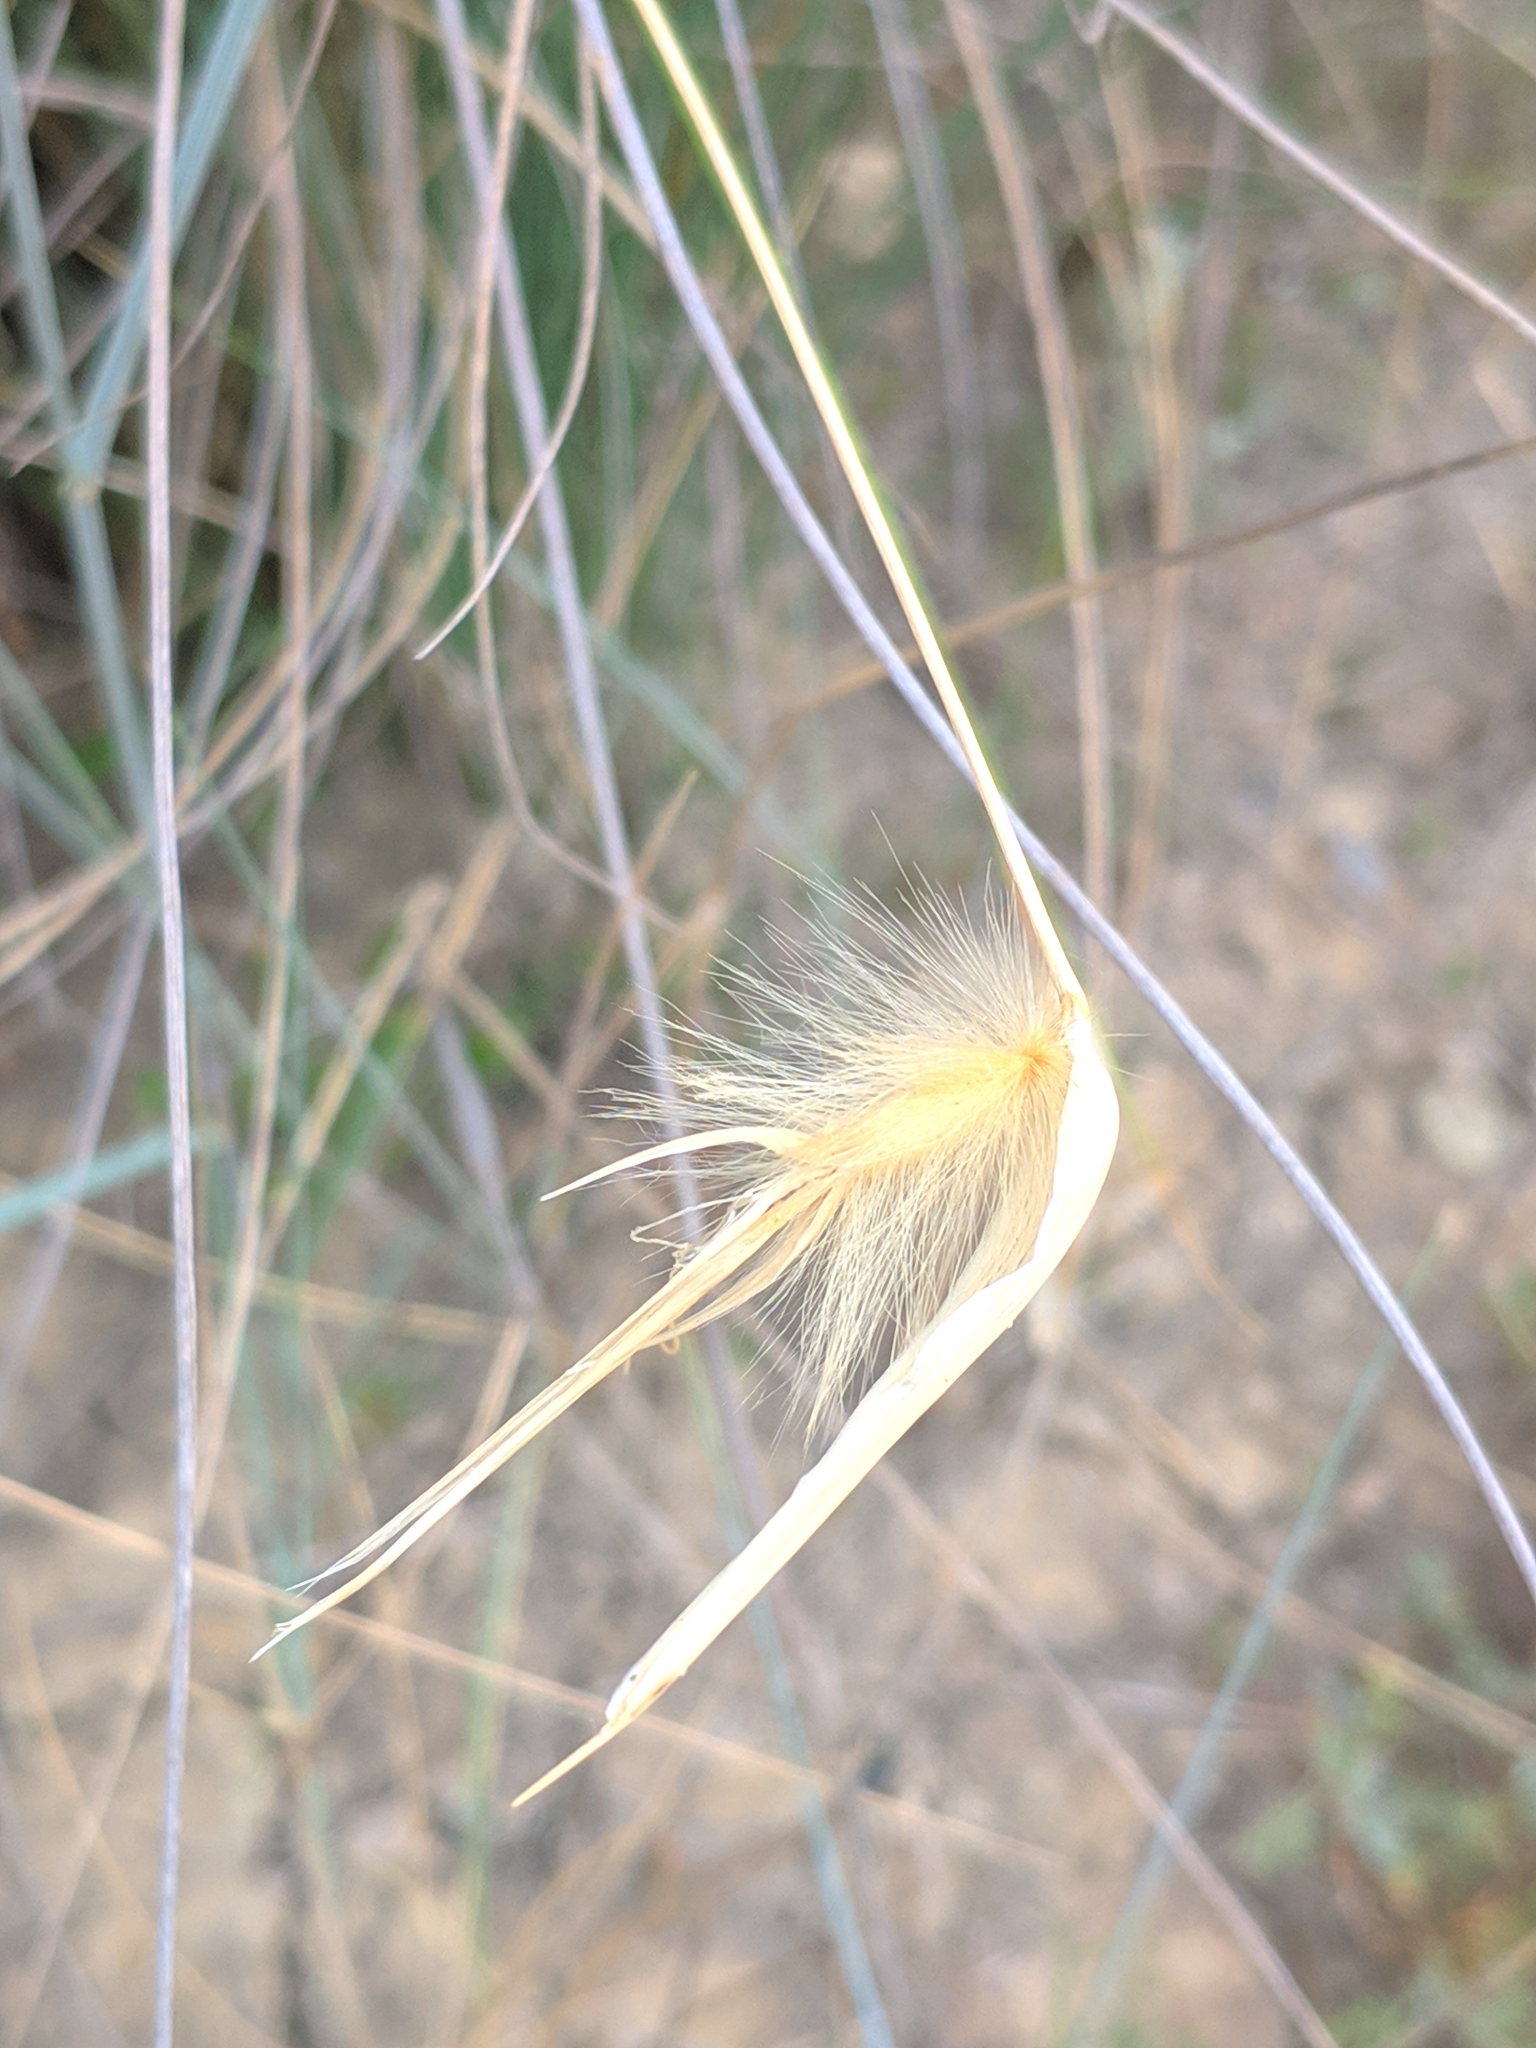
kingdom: Plantae
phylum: Tracheophyta
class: Liliopsida
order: Poales
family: Poaceae
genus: Lygeum
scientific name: Lygeum spartum
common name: Albardine
